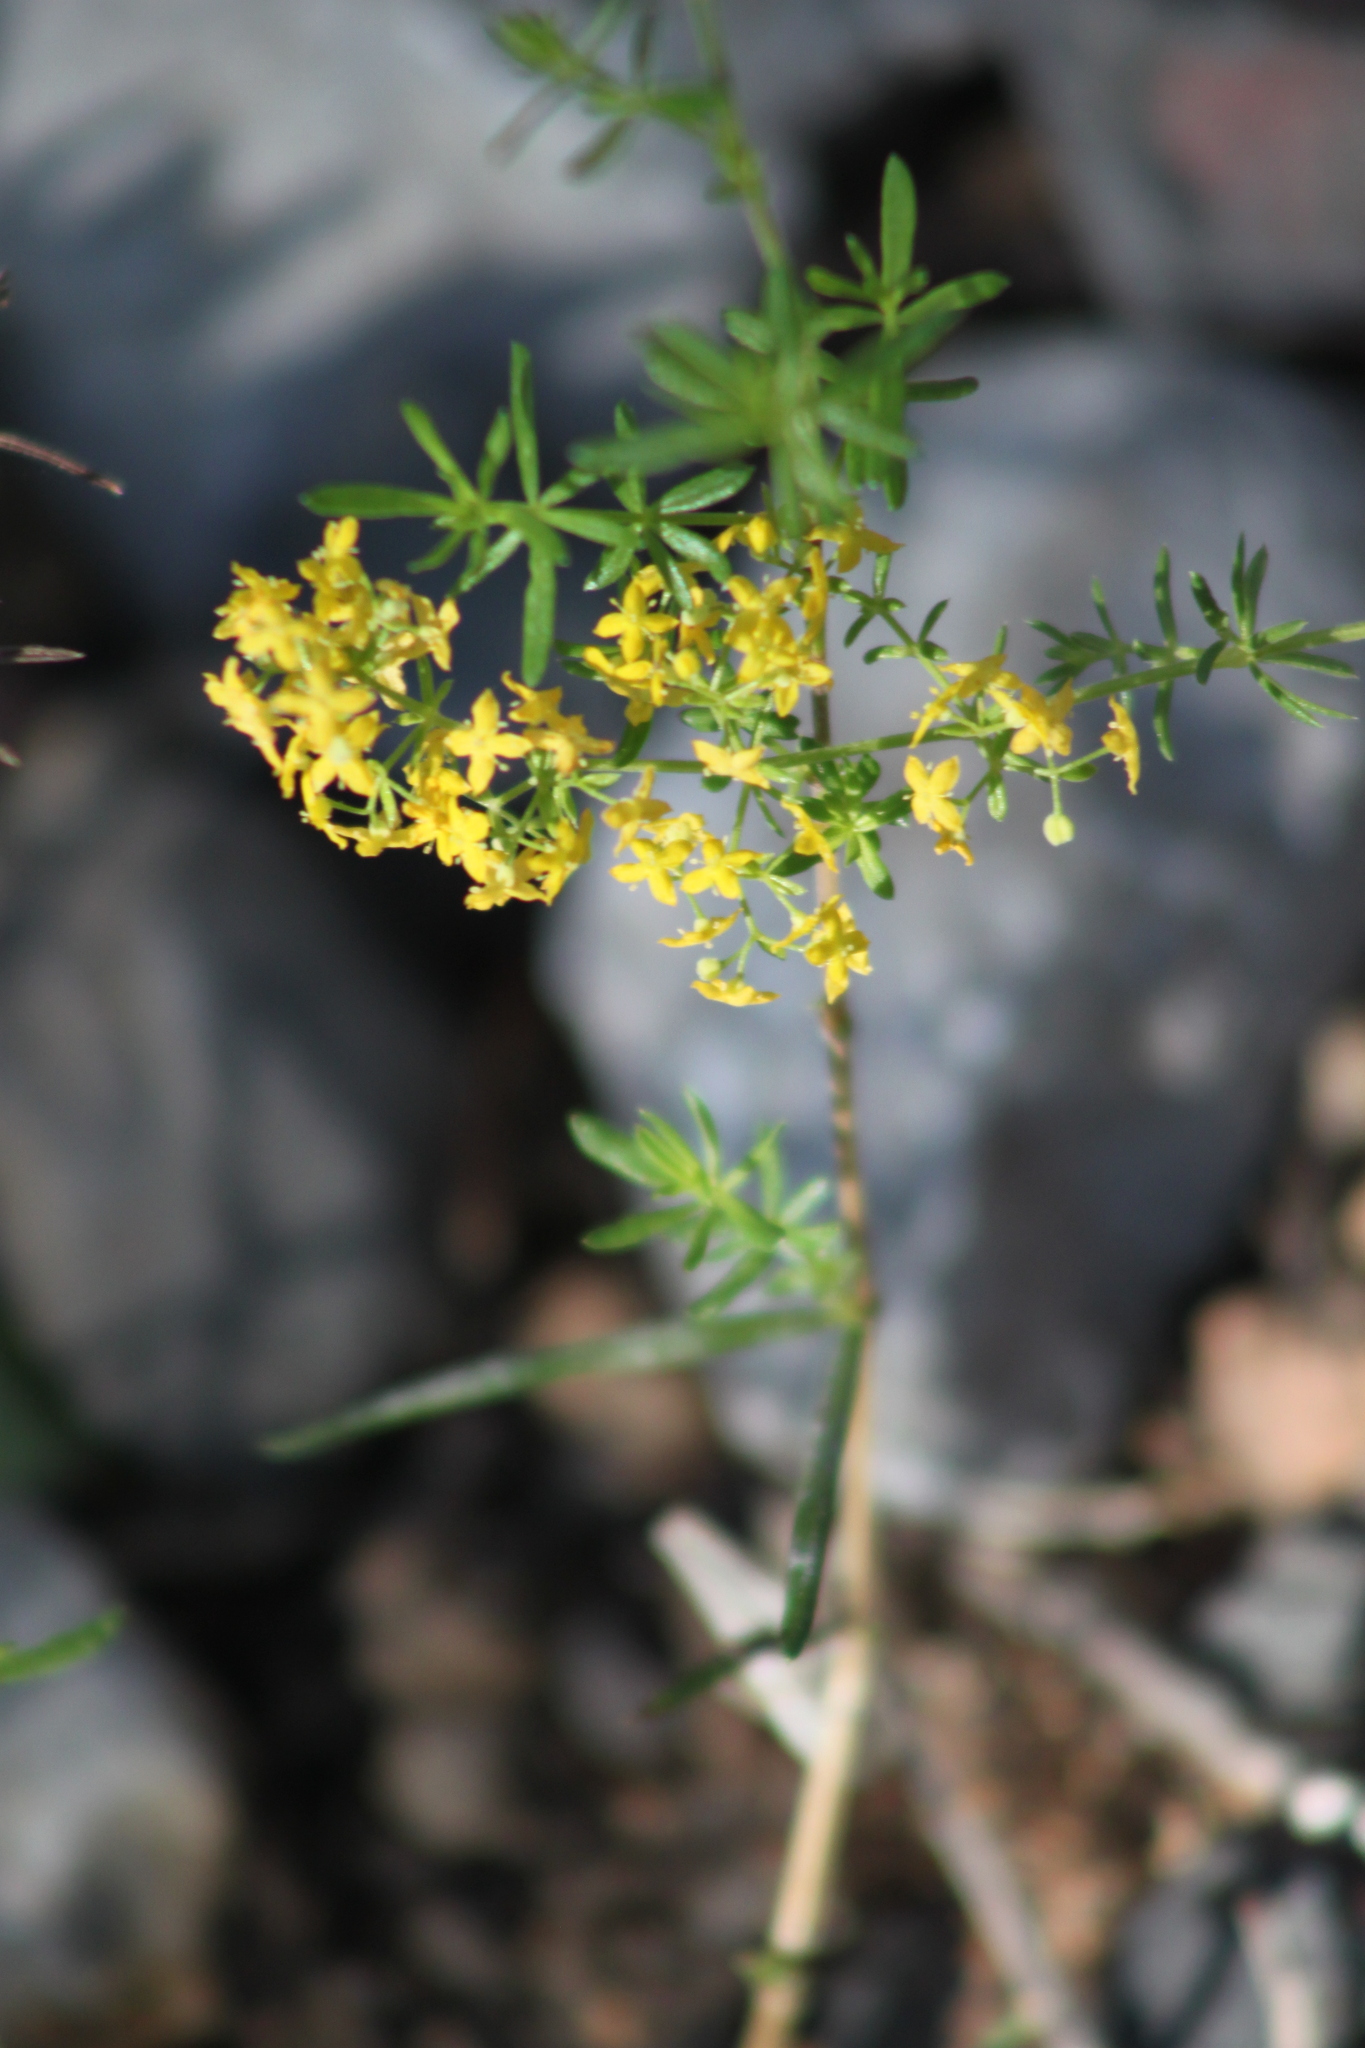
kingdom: Plantae
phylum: Tracheophyta
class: Magnoliopsida
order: Gentianales
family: Rubiaceae
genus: Galium
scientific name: Galium verum
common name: Lady's bedstraw
